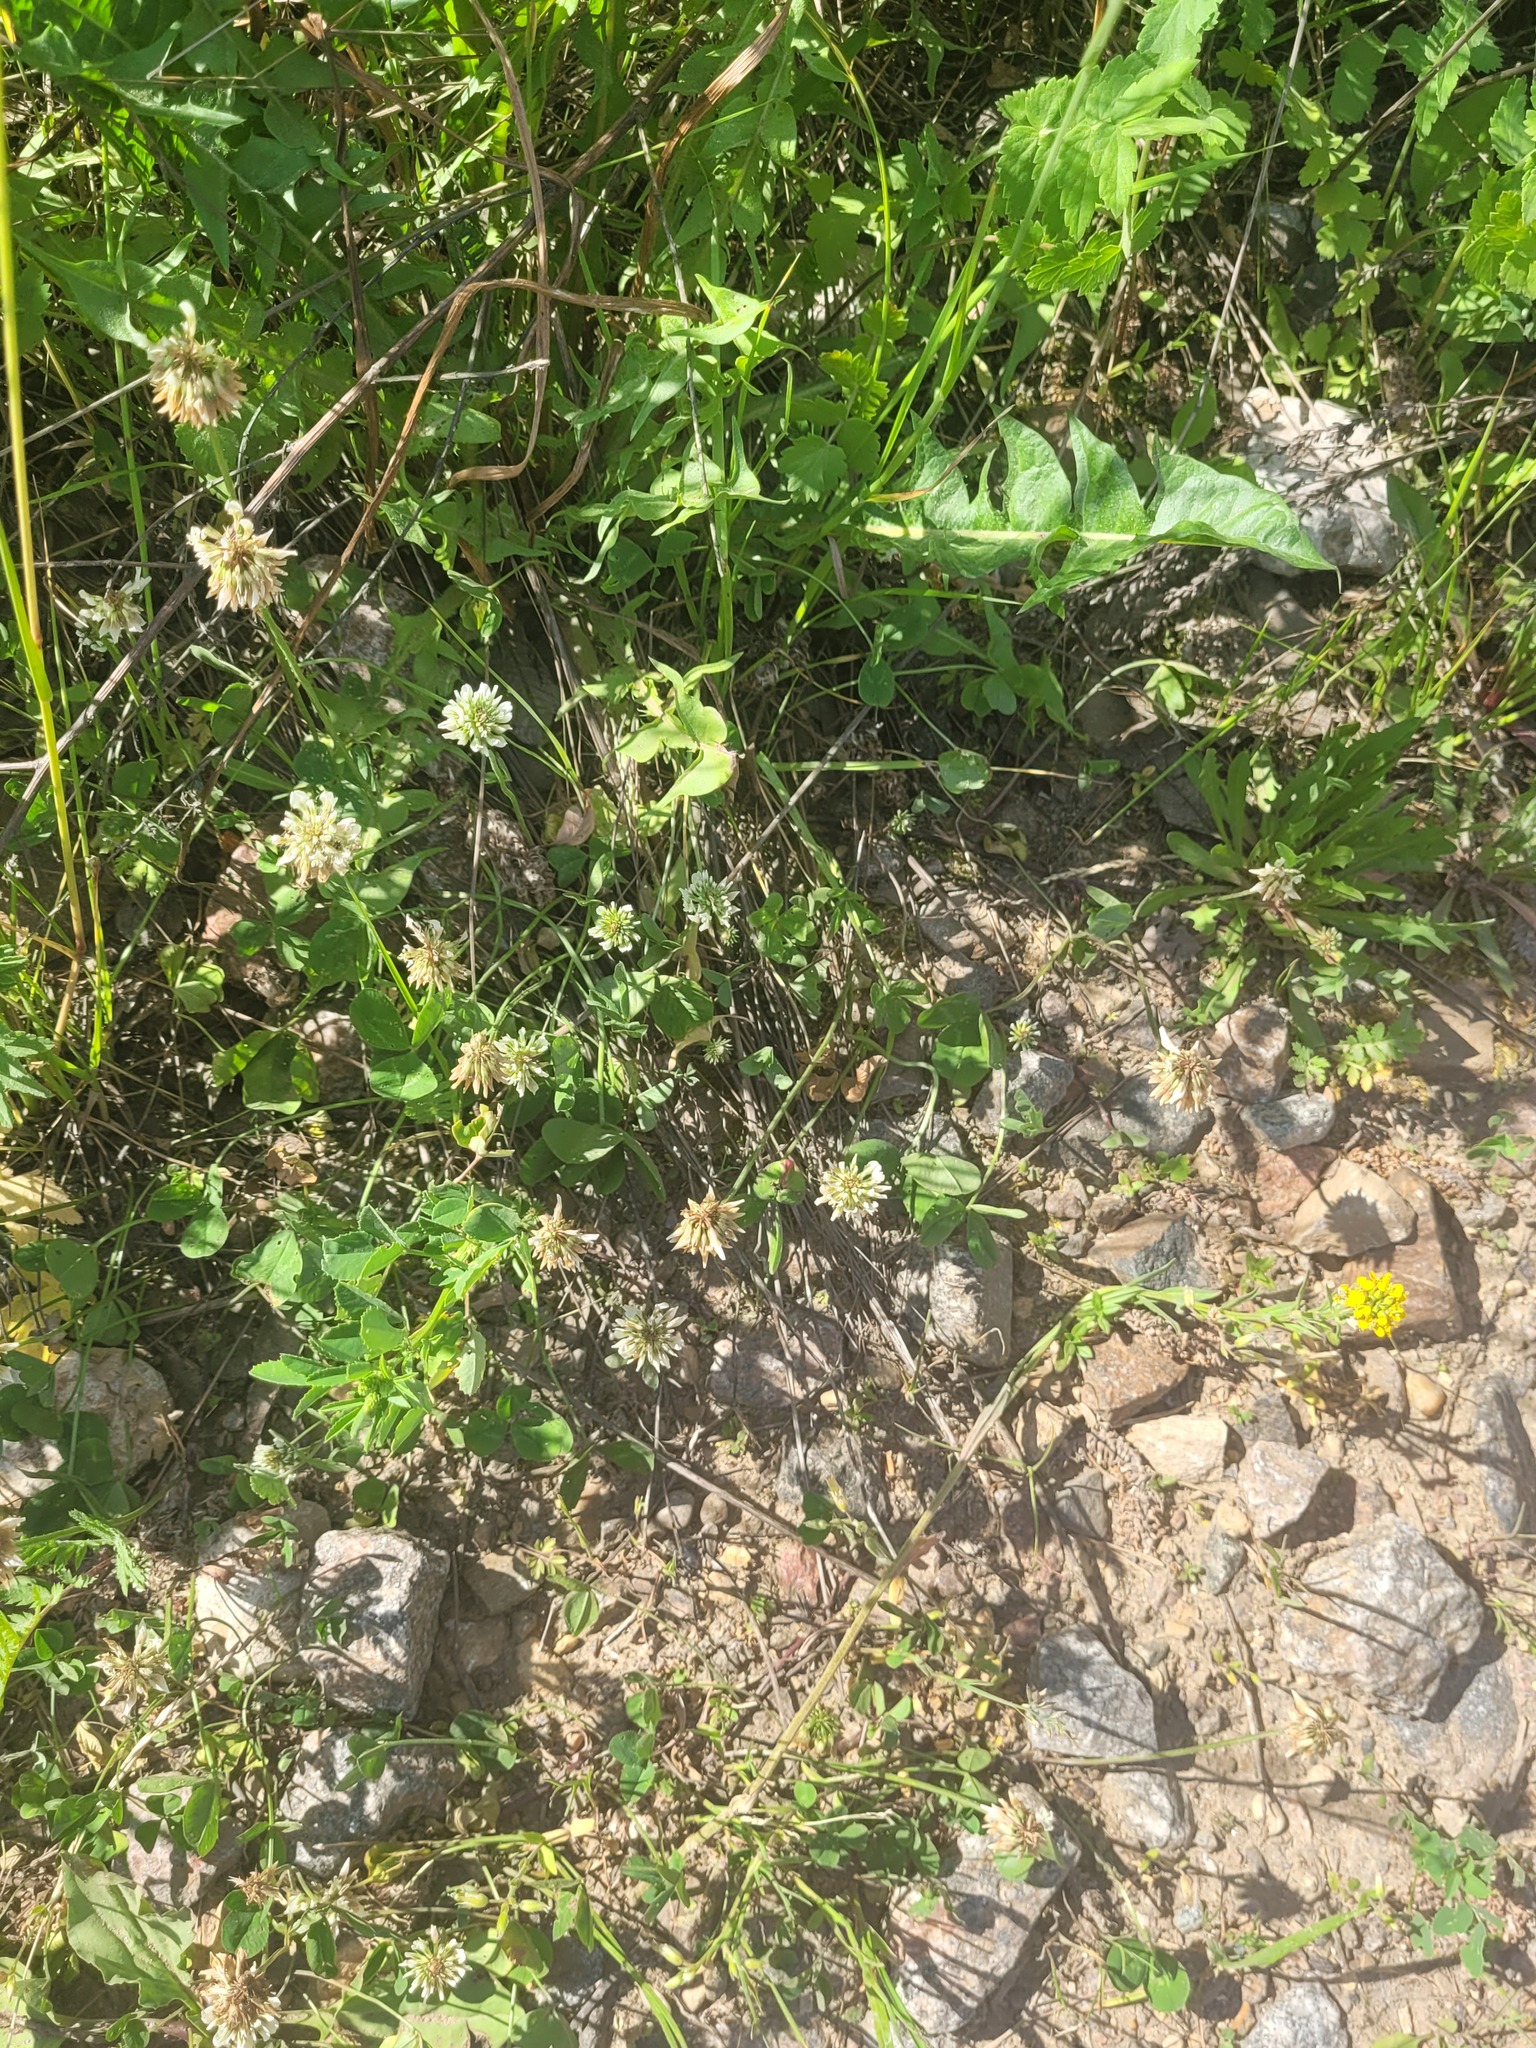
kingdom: Plantae
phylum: Tracheophyta
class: Magnoliopsida
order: Fabales
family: Fabaceae
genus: Trifolium
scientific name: Trifolium repens
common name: White clover
